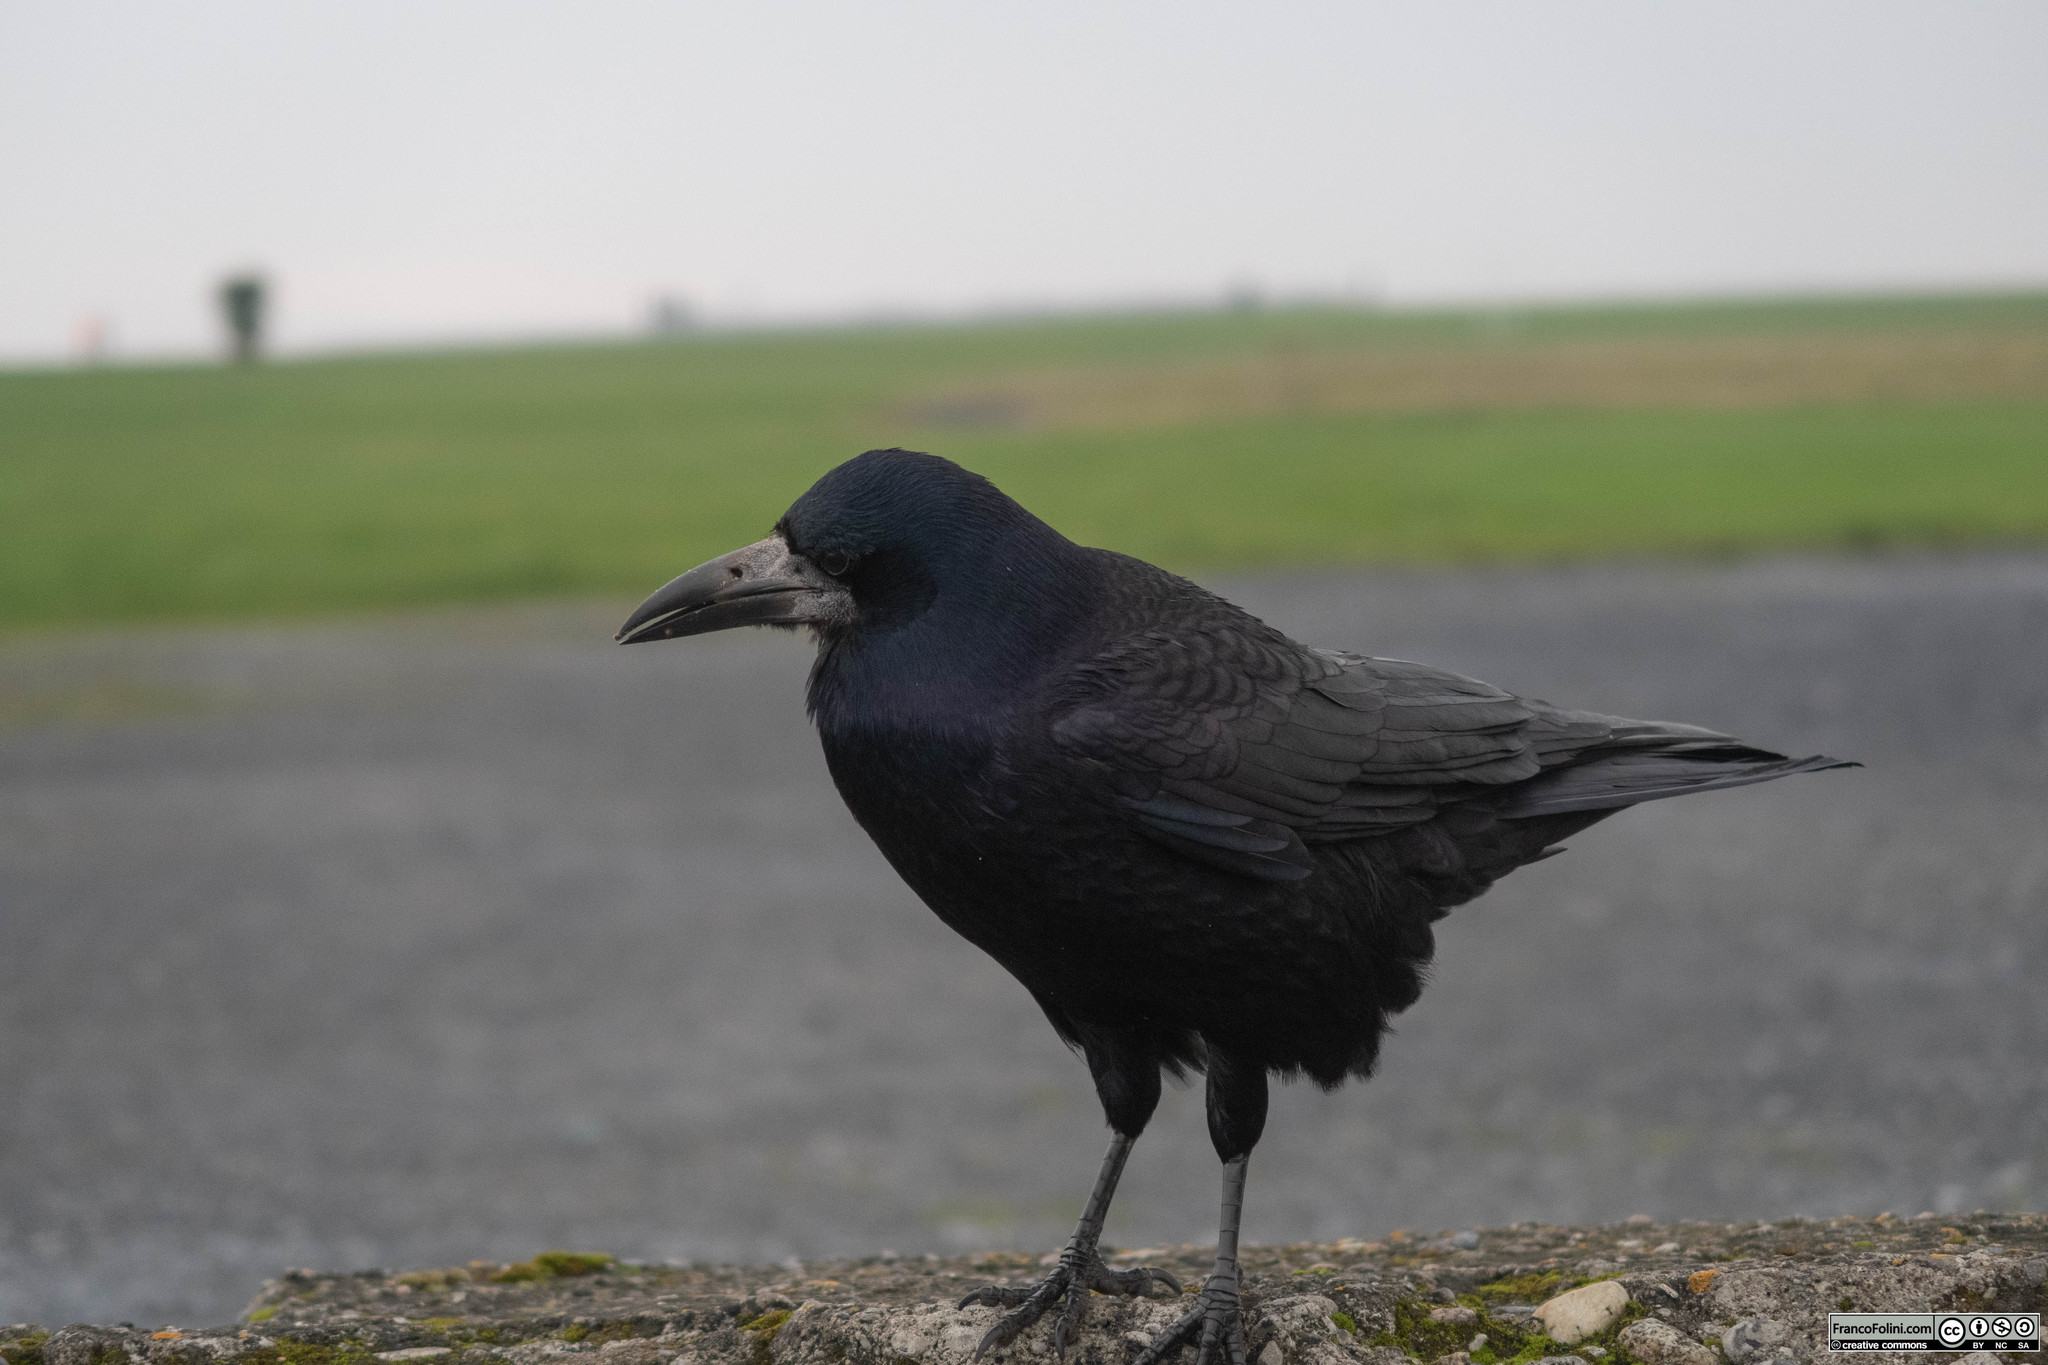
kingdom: Animalia
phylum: Chordata
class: Aves
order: Passeriformes
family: Corvidae
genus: Corvus
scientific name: Corvus frugilegus
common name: Rook
